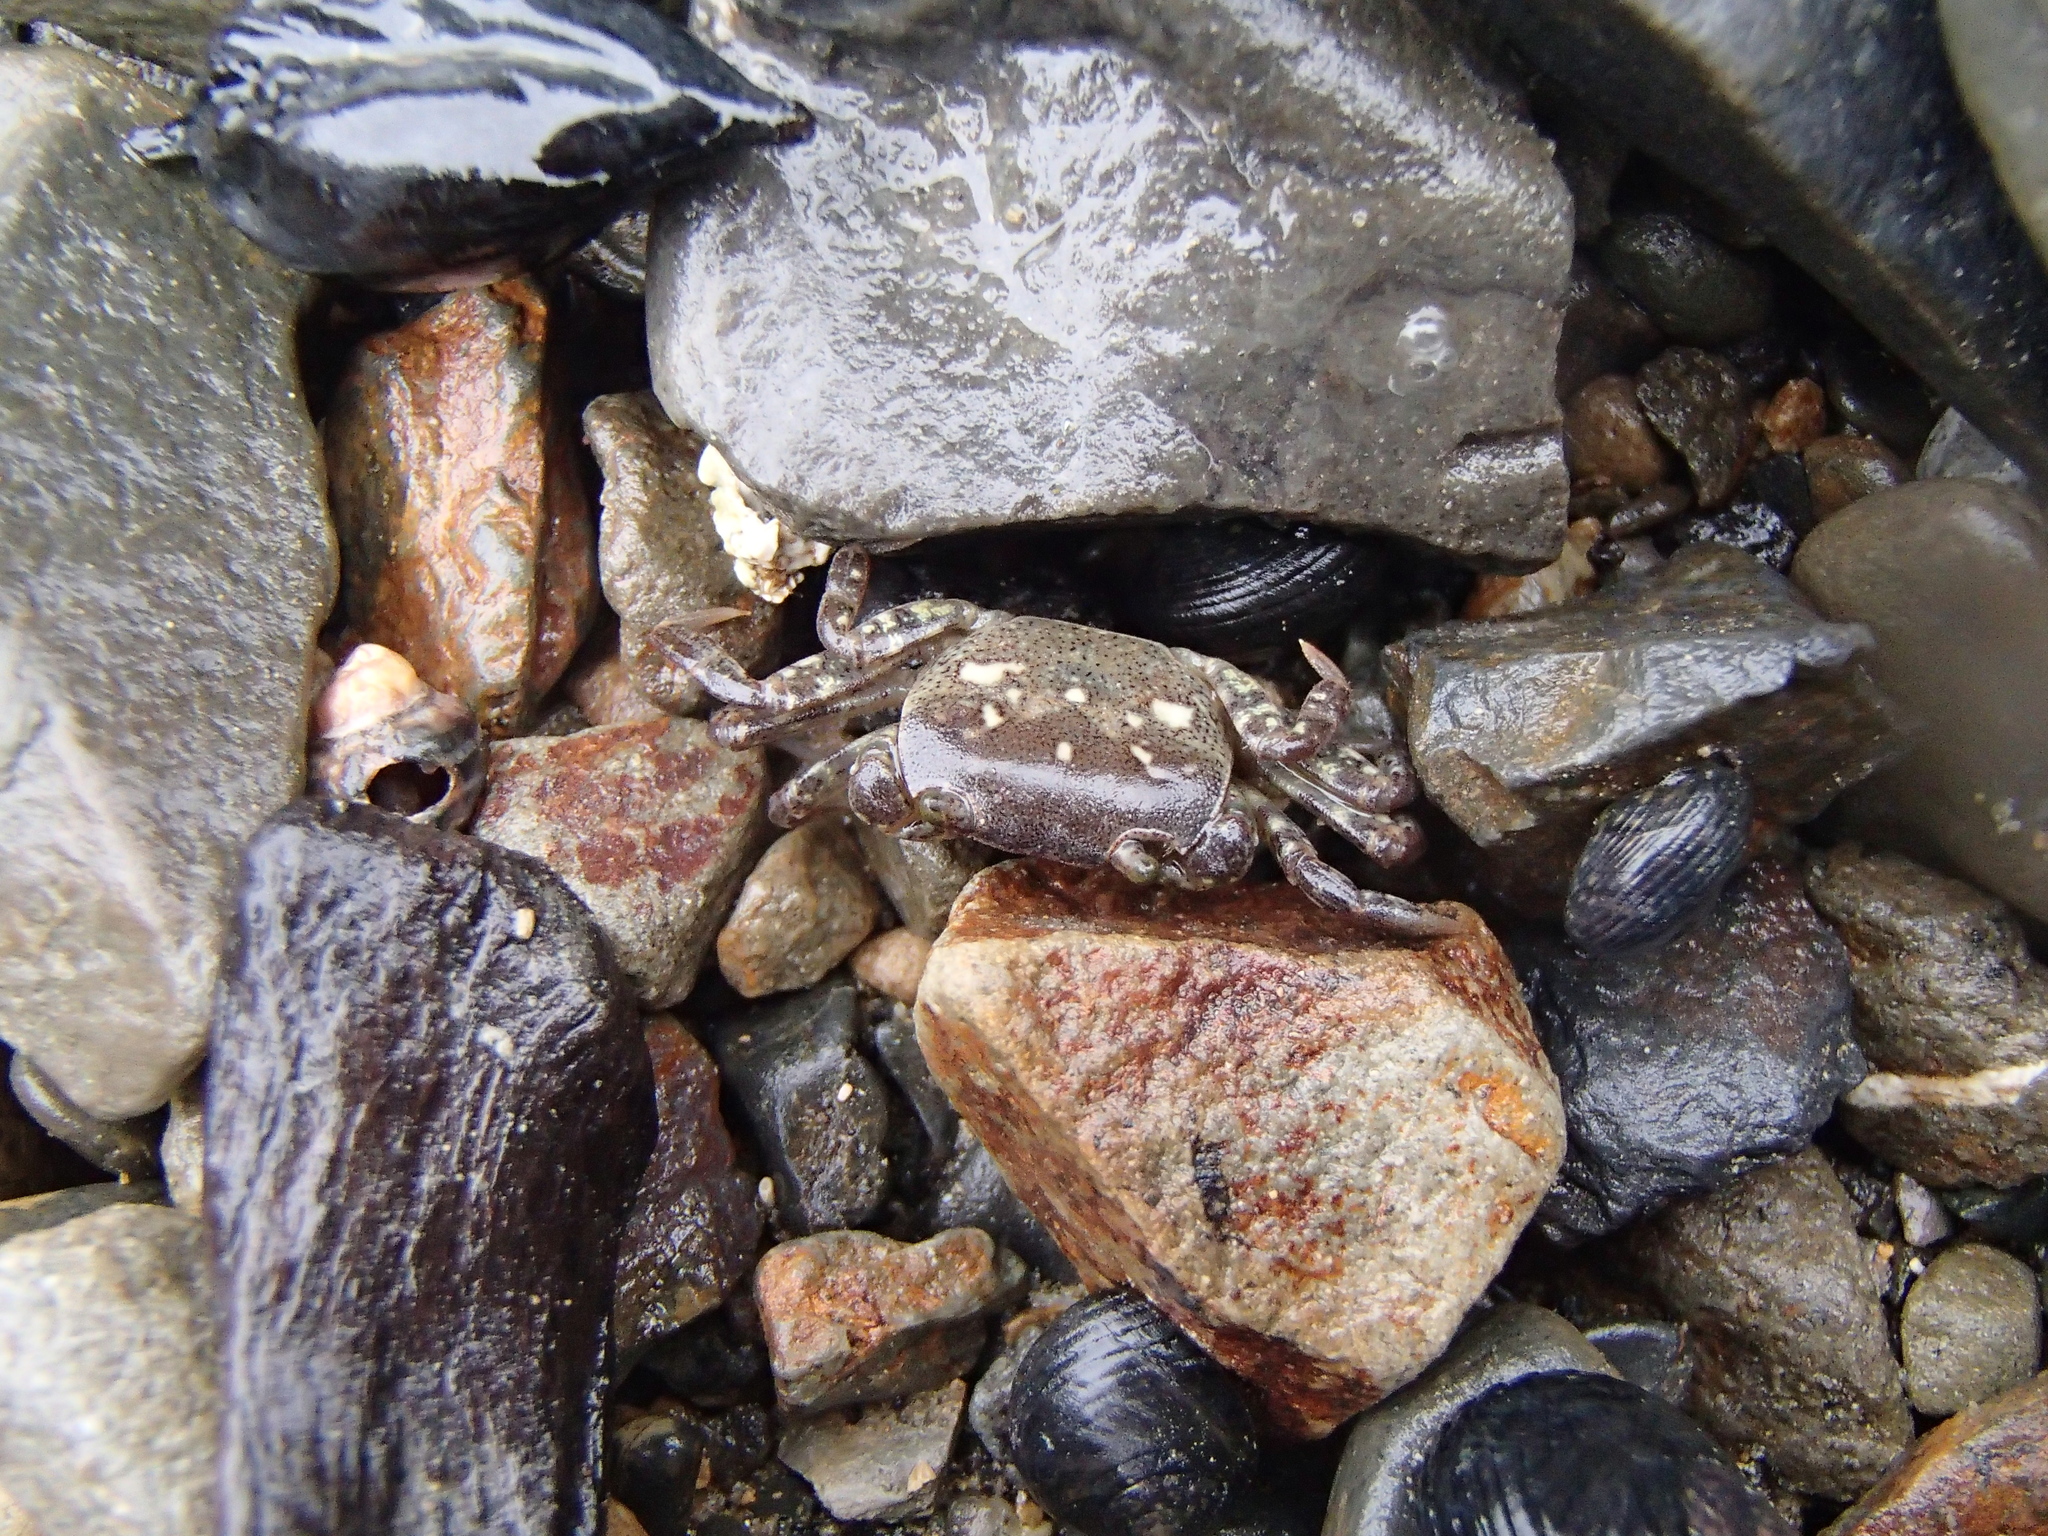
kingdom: Animalia
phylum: Arthropoda
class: Malacostraca
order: Decapoda
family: Varunidae
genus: Cyclograpsus
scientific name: Cyclograpsus lavauxi
